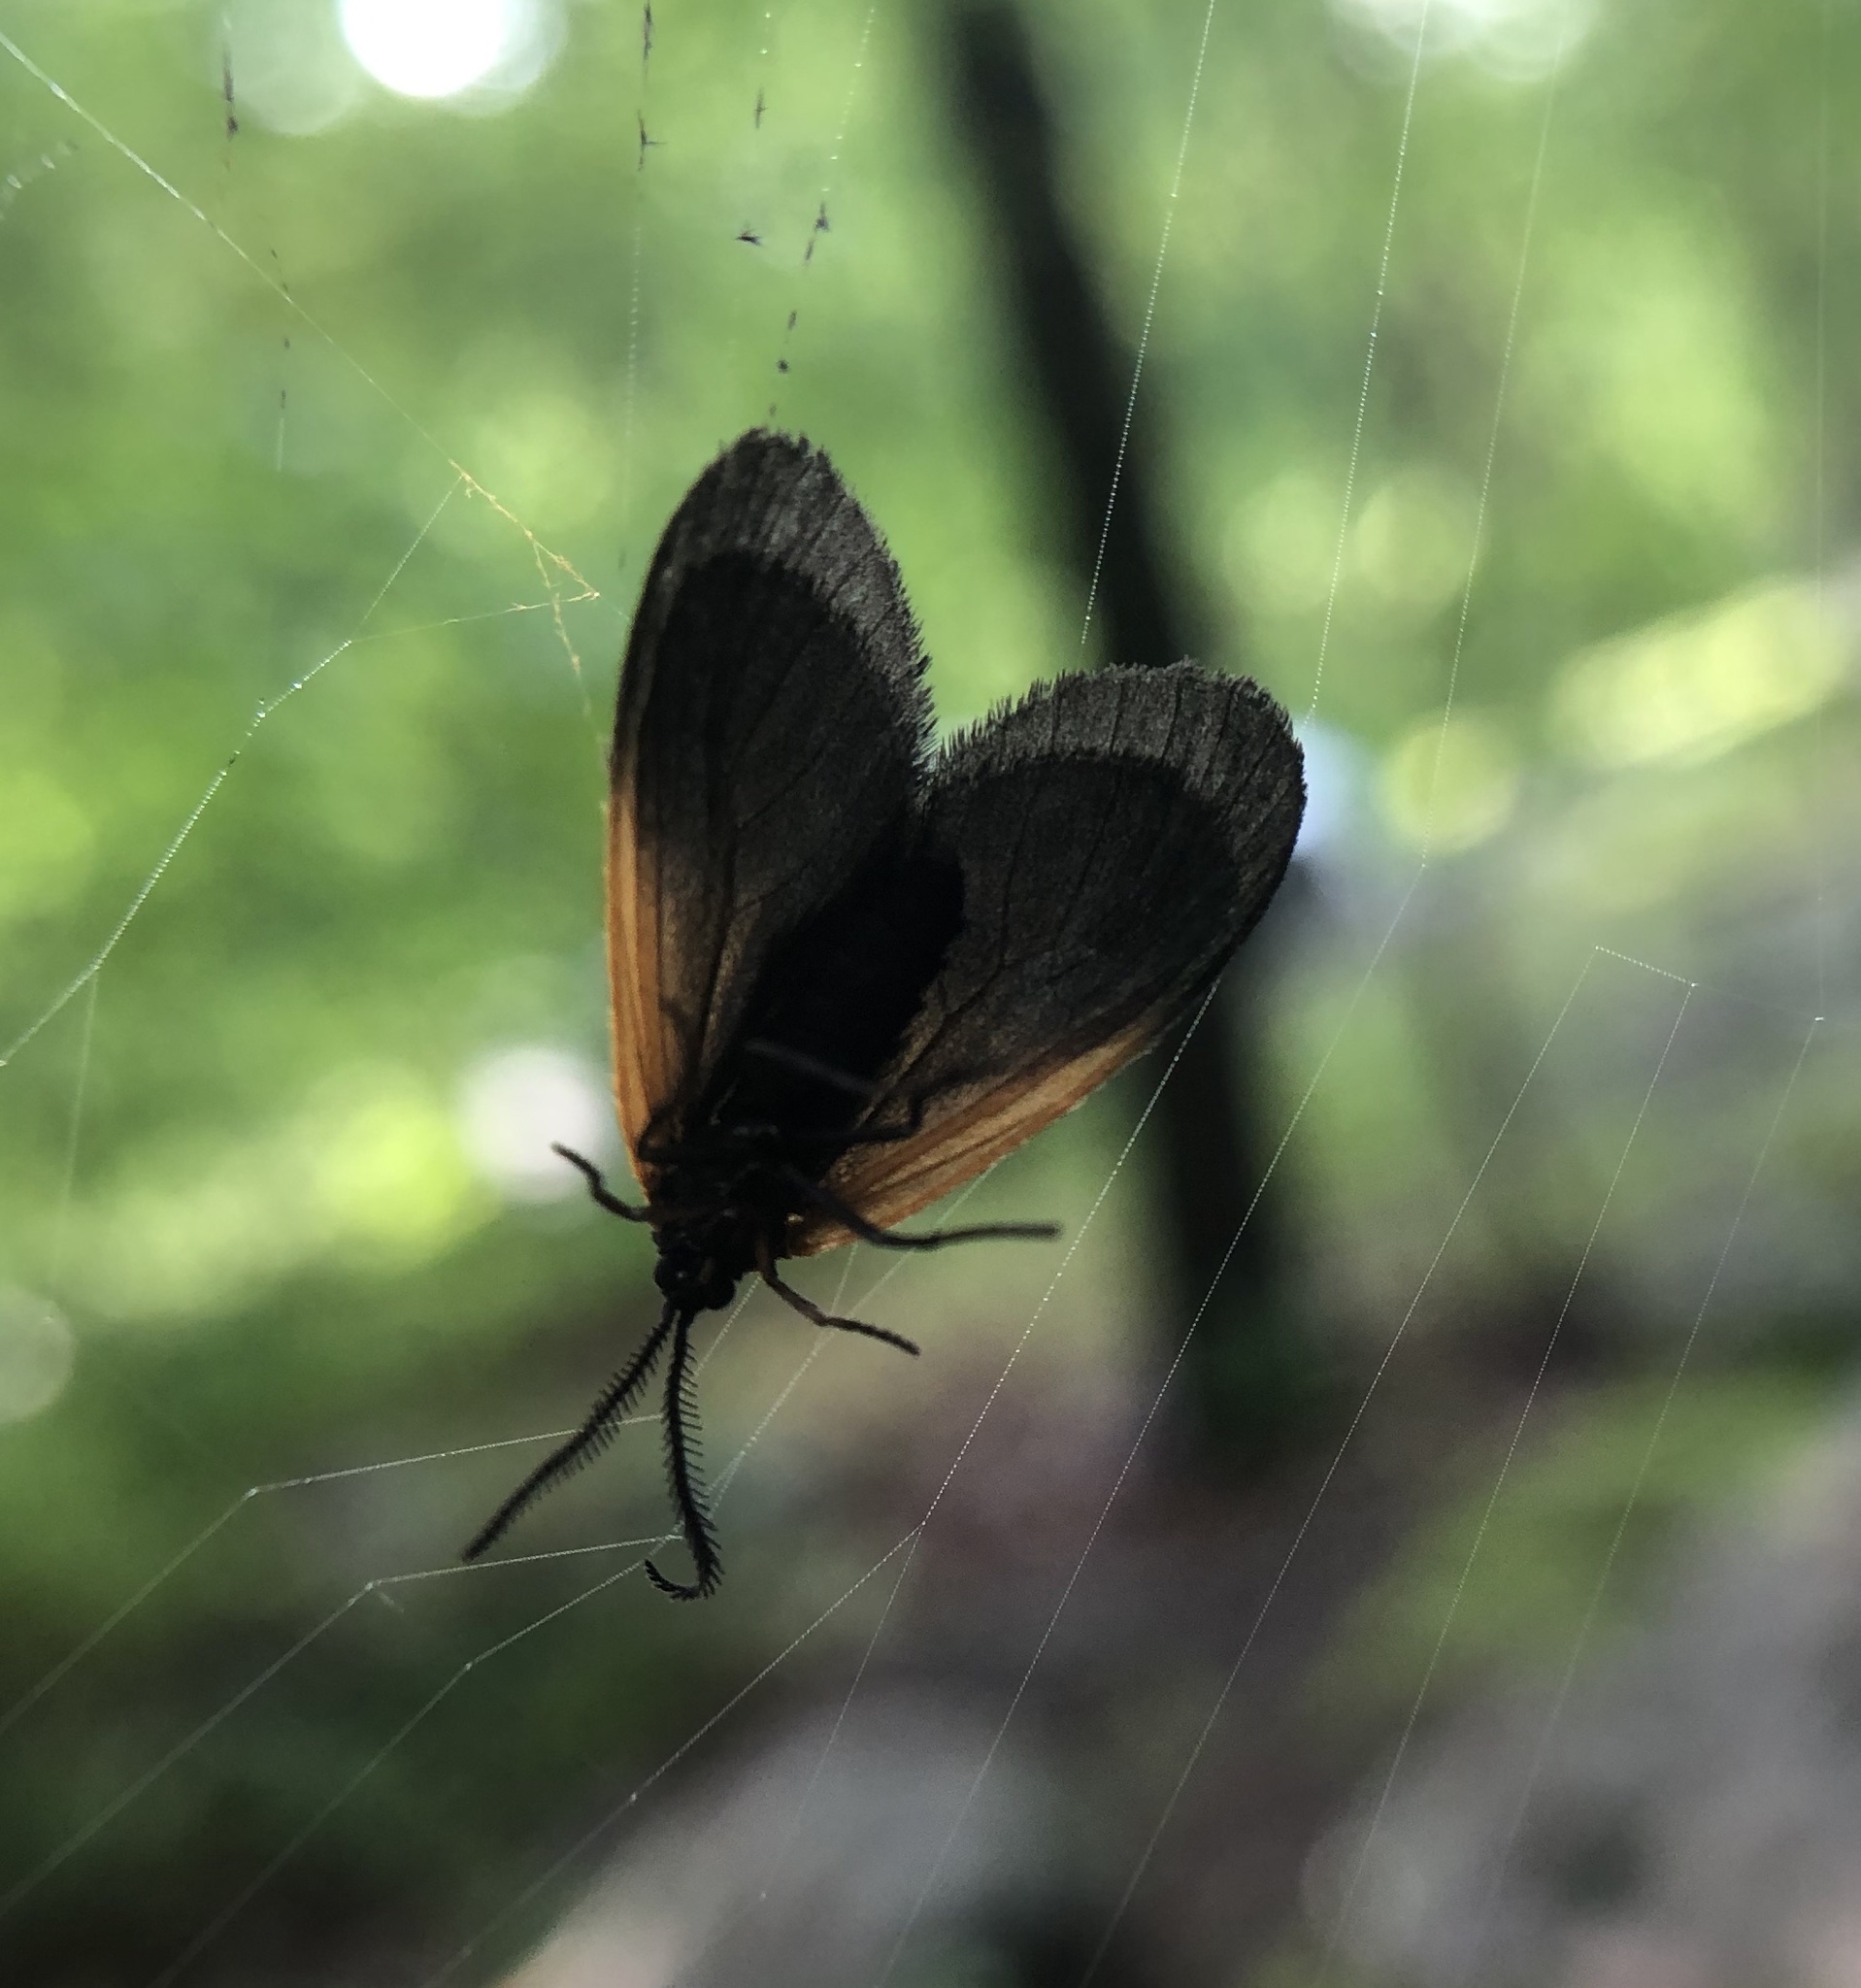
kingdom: Animalia
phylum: Arthropoda
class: Insecta
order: Lepidoptera
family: Zygaenidae
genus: Malthaca
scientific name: Malthaca dimidiata
